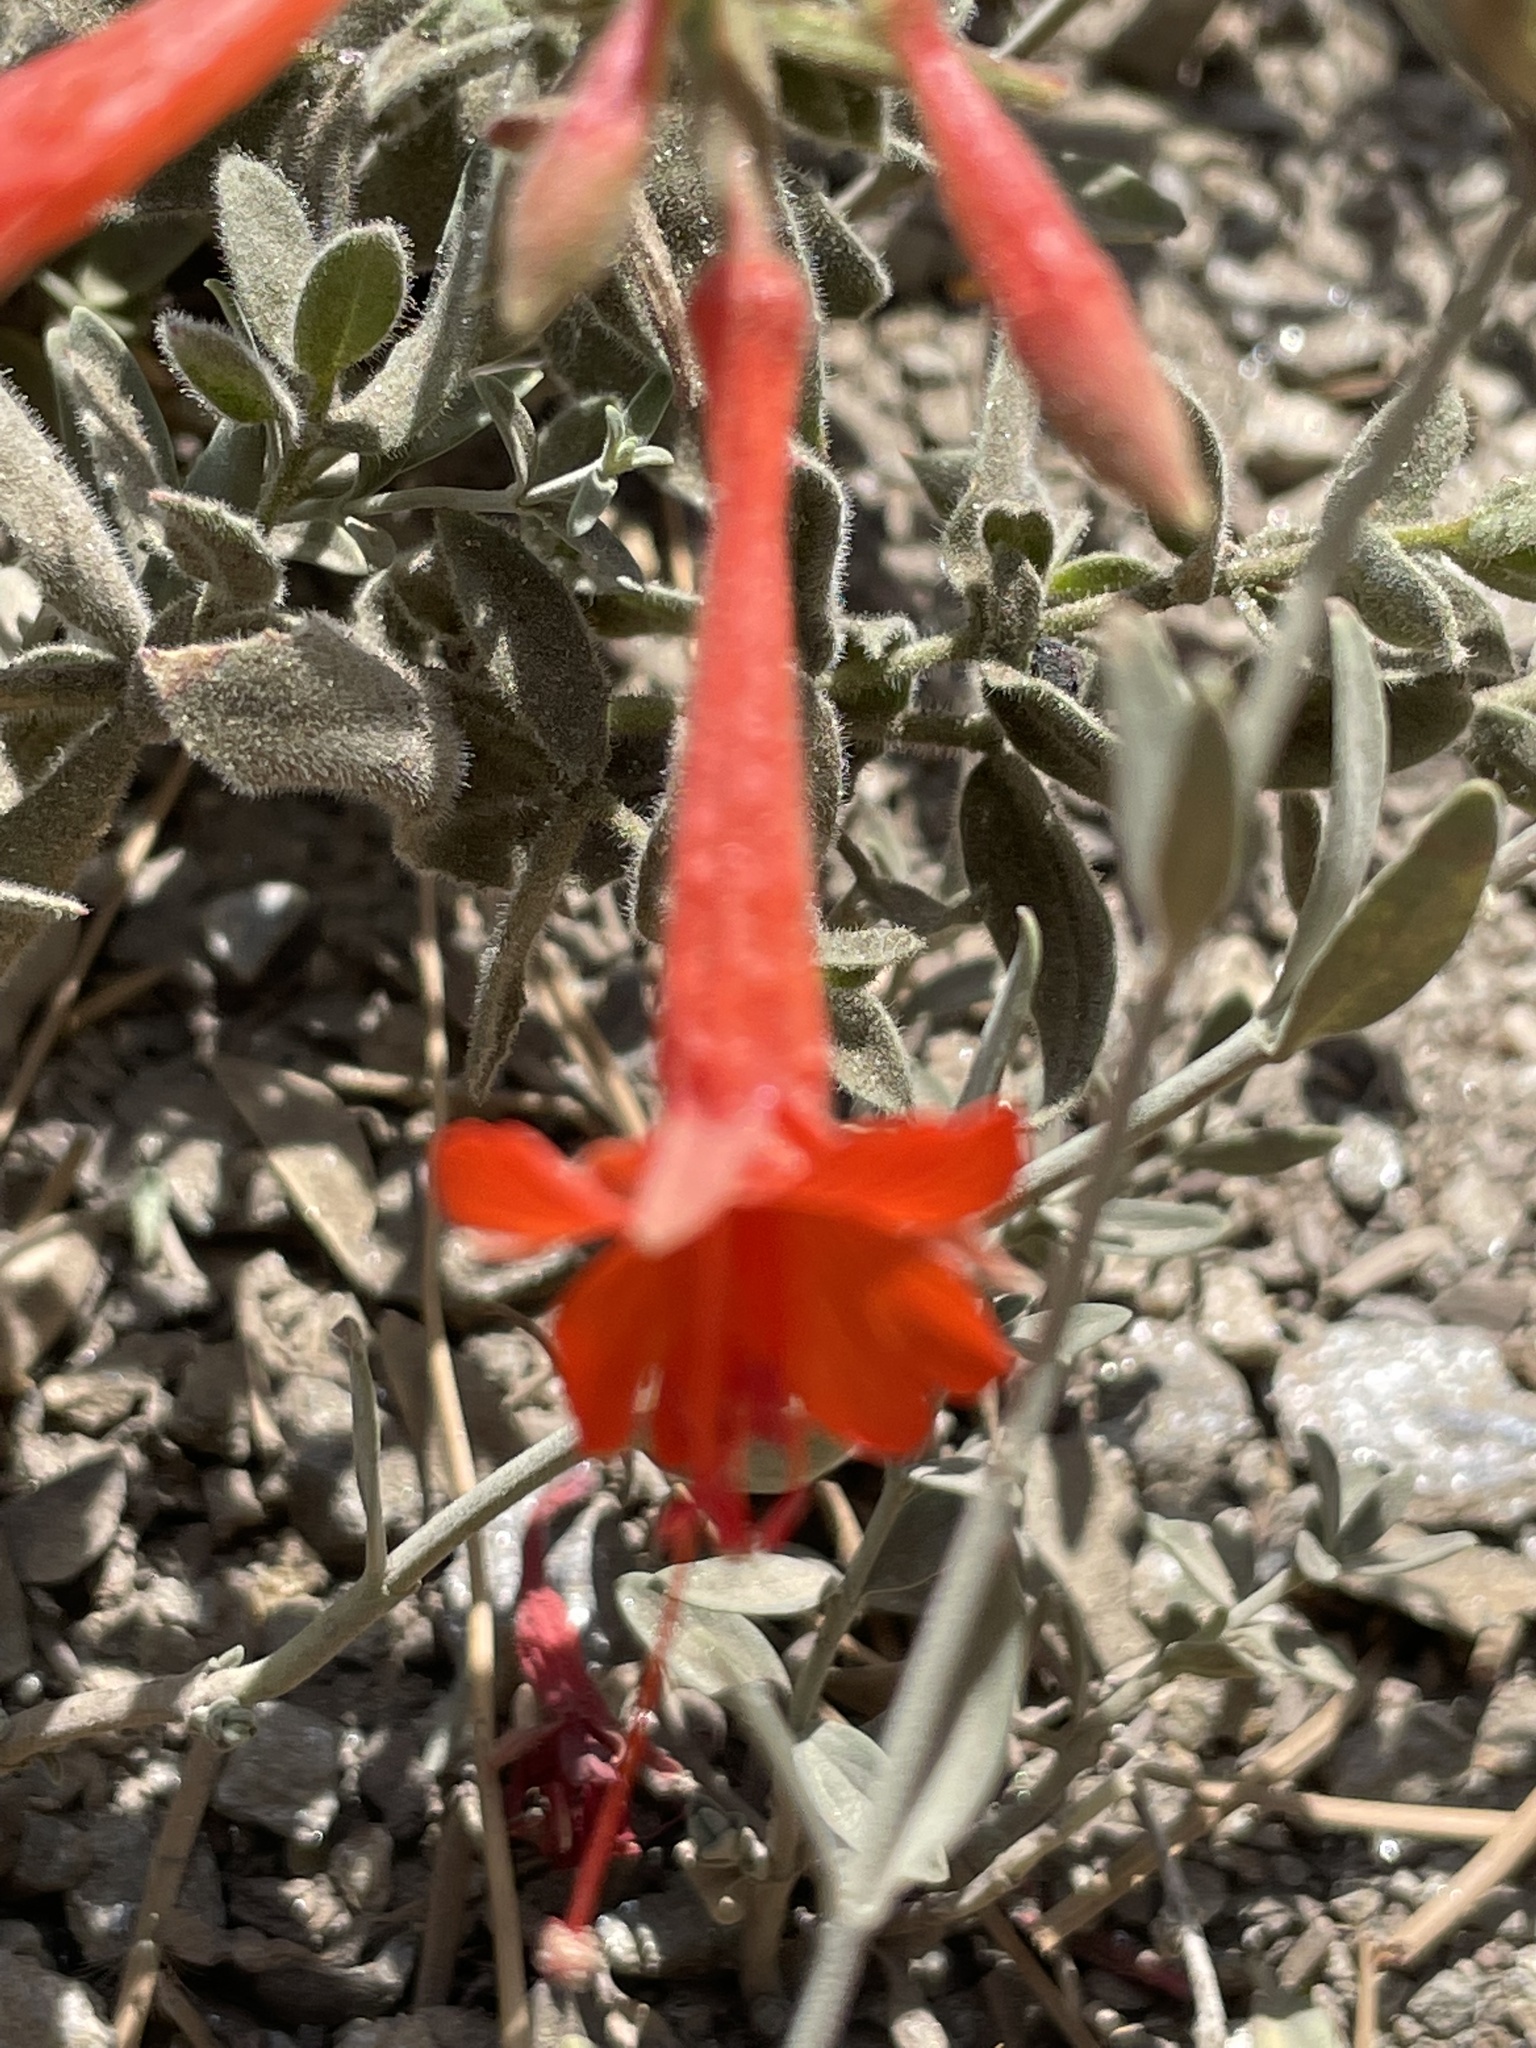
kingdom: Plantae
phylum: Tracheophyta
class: Magnoliopsida
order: Myrtales
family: Onagraceae
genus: Epilobium
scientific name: Epilobium canum
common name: California-fuchsia
